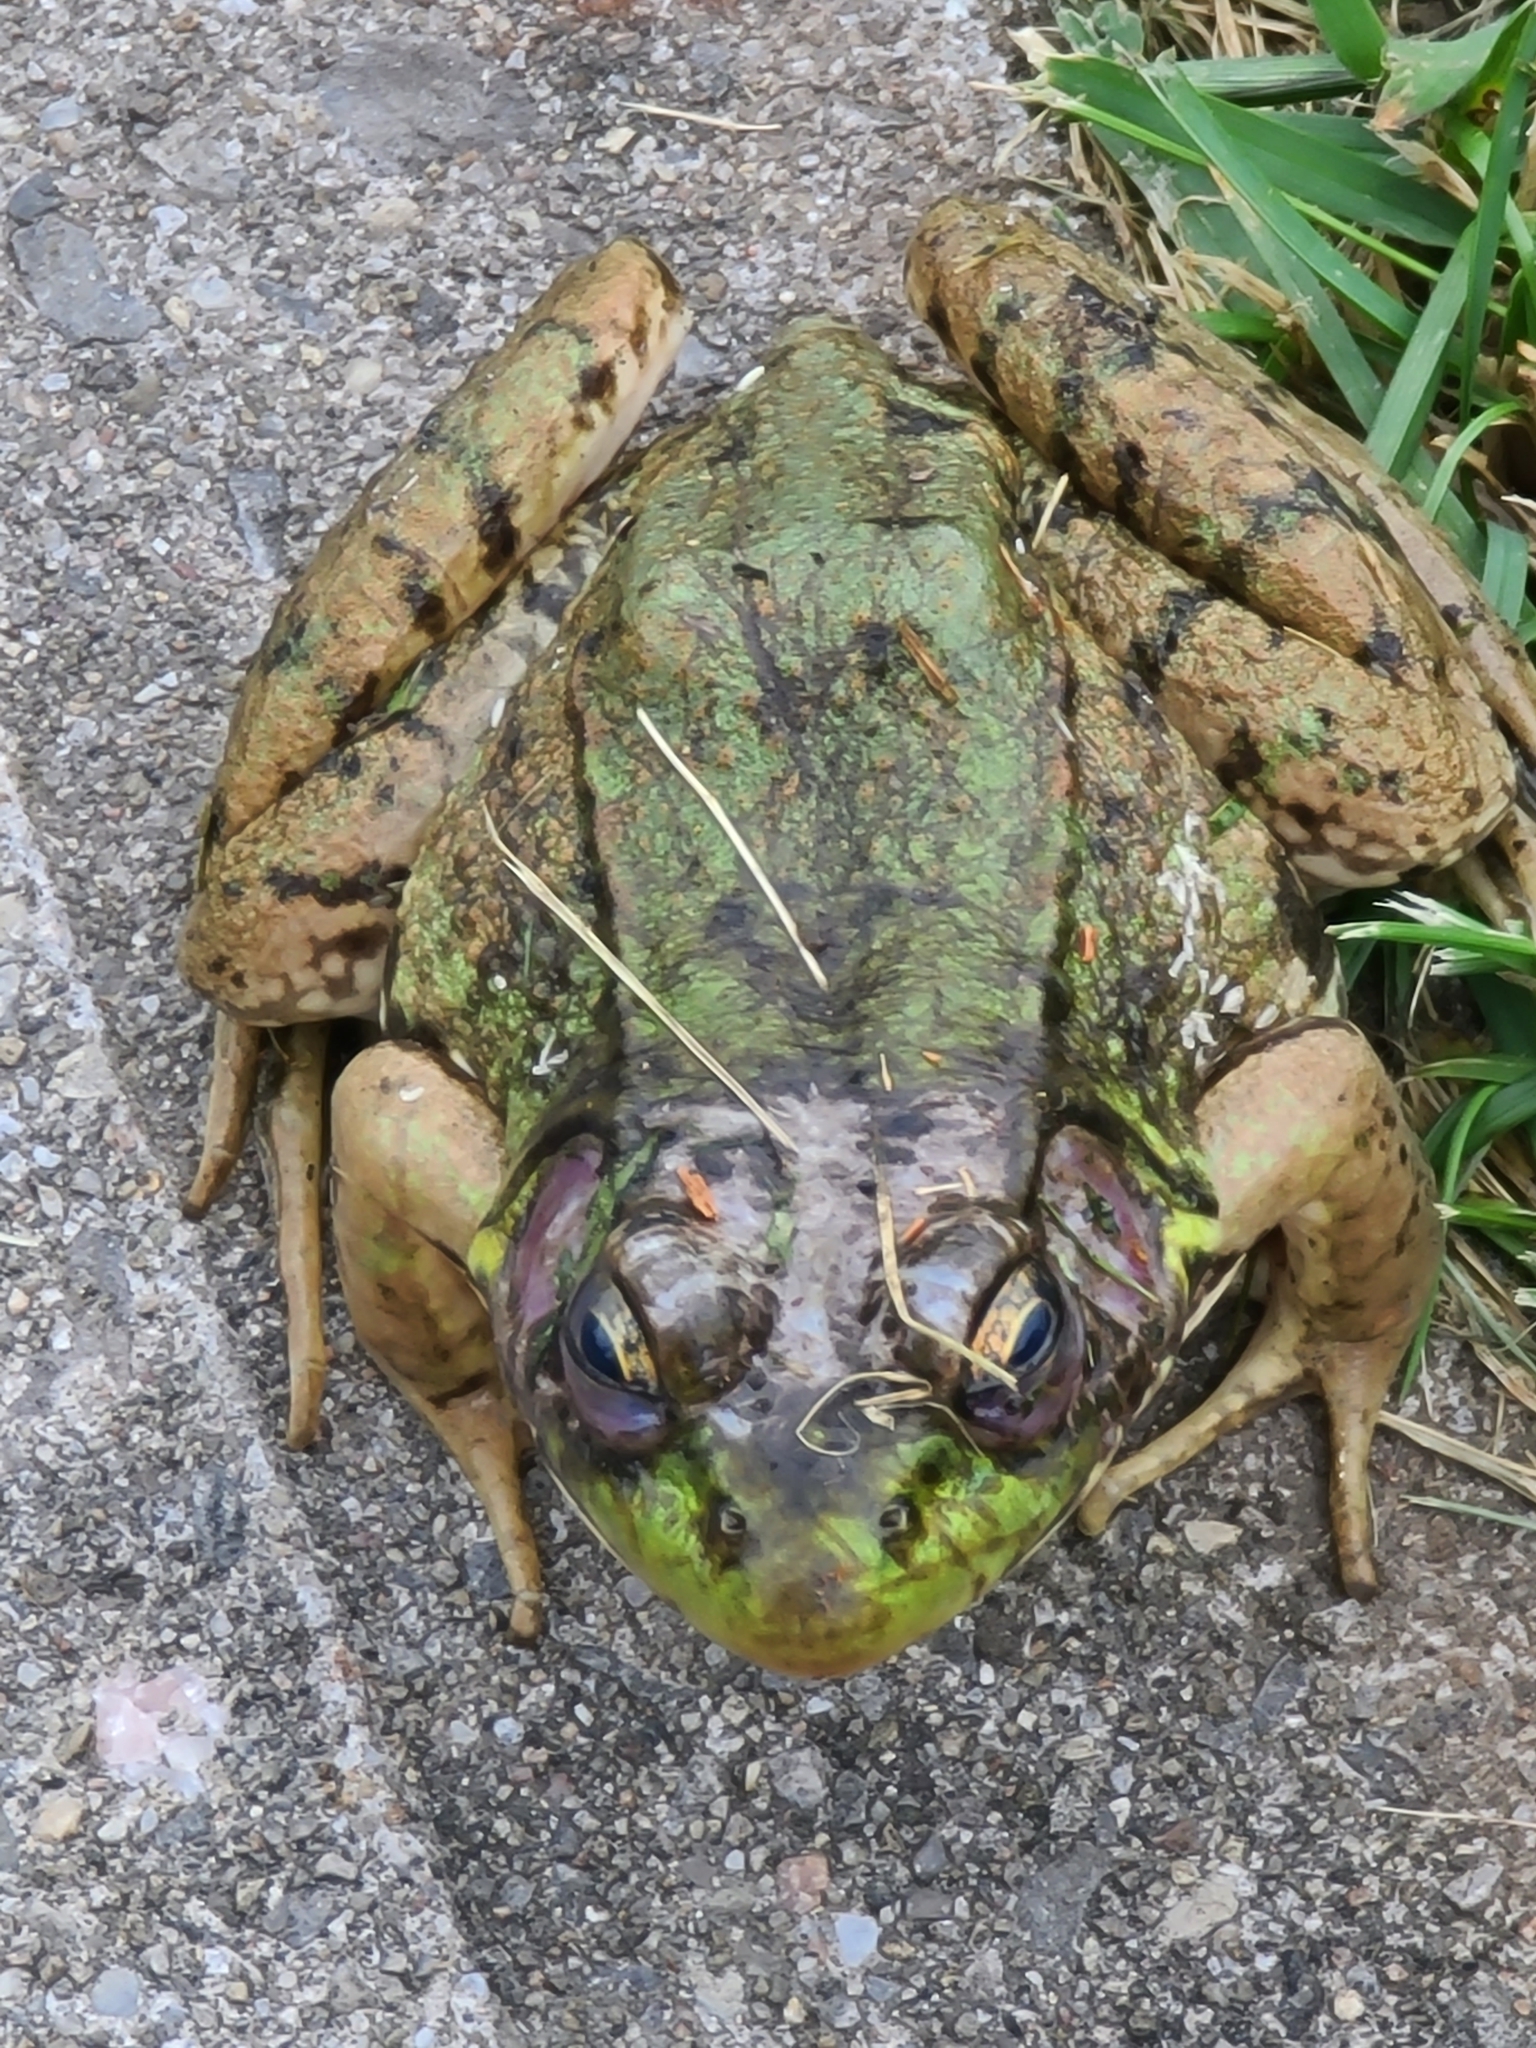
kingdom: Animalia
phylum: Chordata
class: Amphibia
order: Anura
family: Ranidae
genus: Lithobates
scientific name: Lithobates clamitans
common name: Green frog
